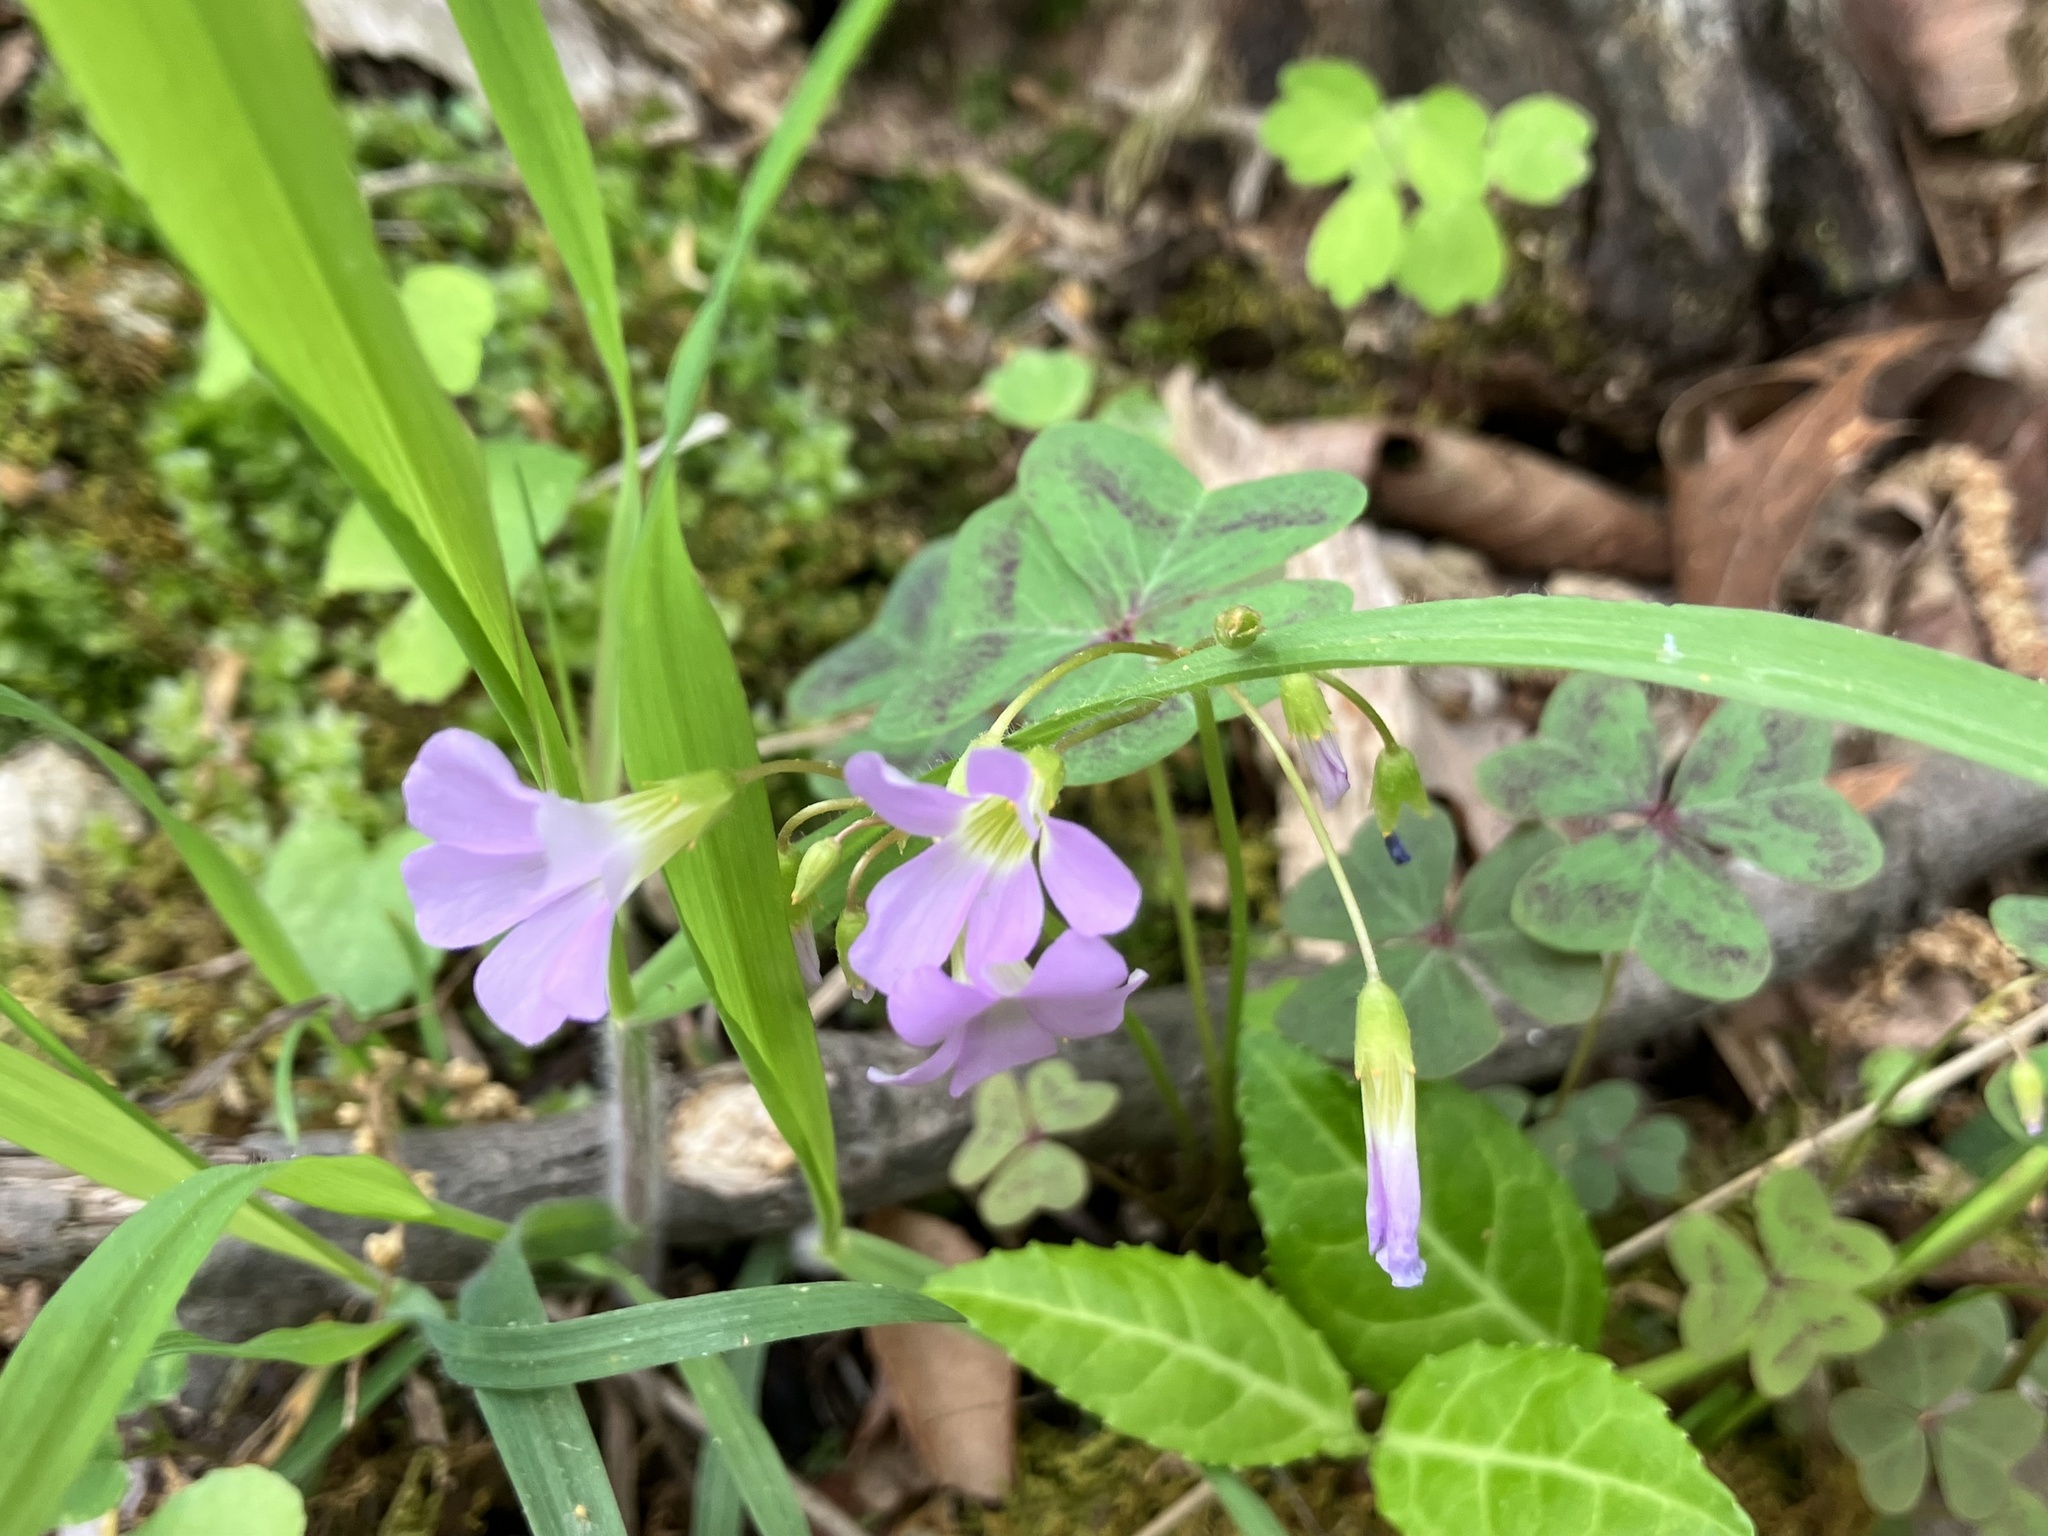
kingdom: Plantae
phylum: Tracheophyta
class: Magnoliopsida
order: Oxalidales
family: Oxalidaceae
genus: Oxalis
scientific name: Oxalis violacea
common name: Violet wood-sorrel
